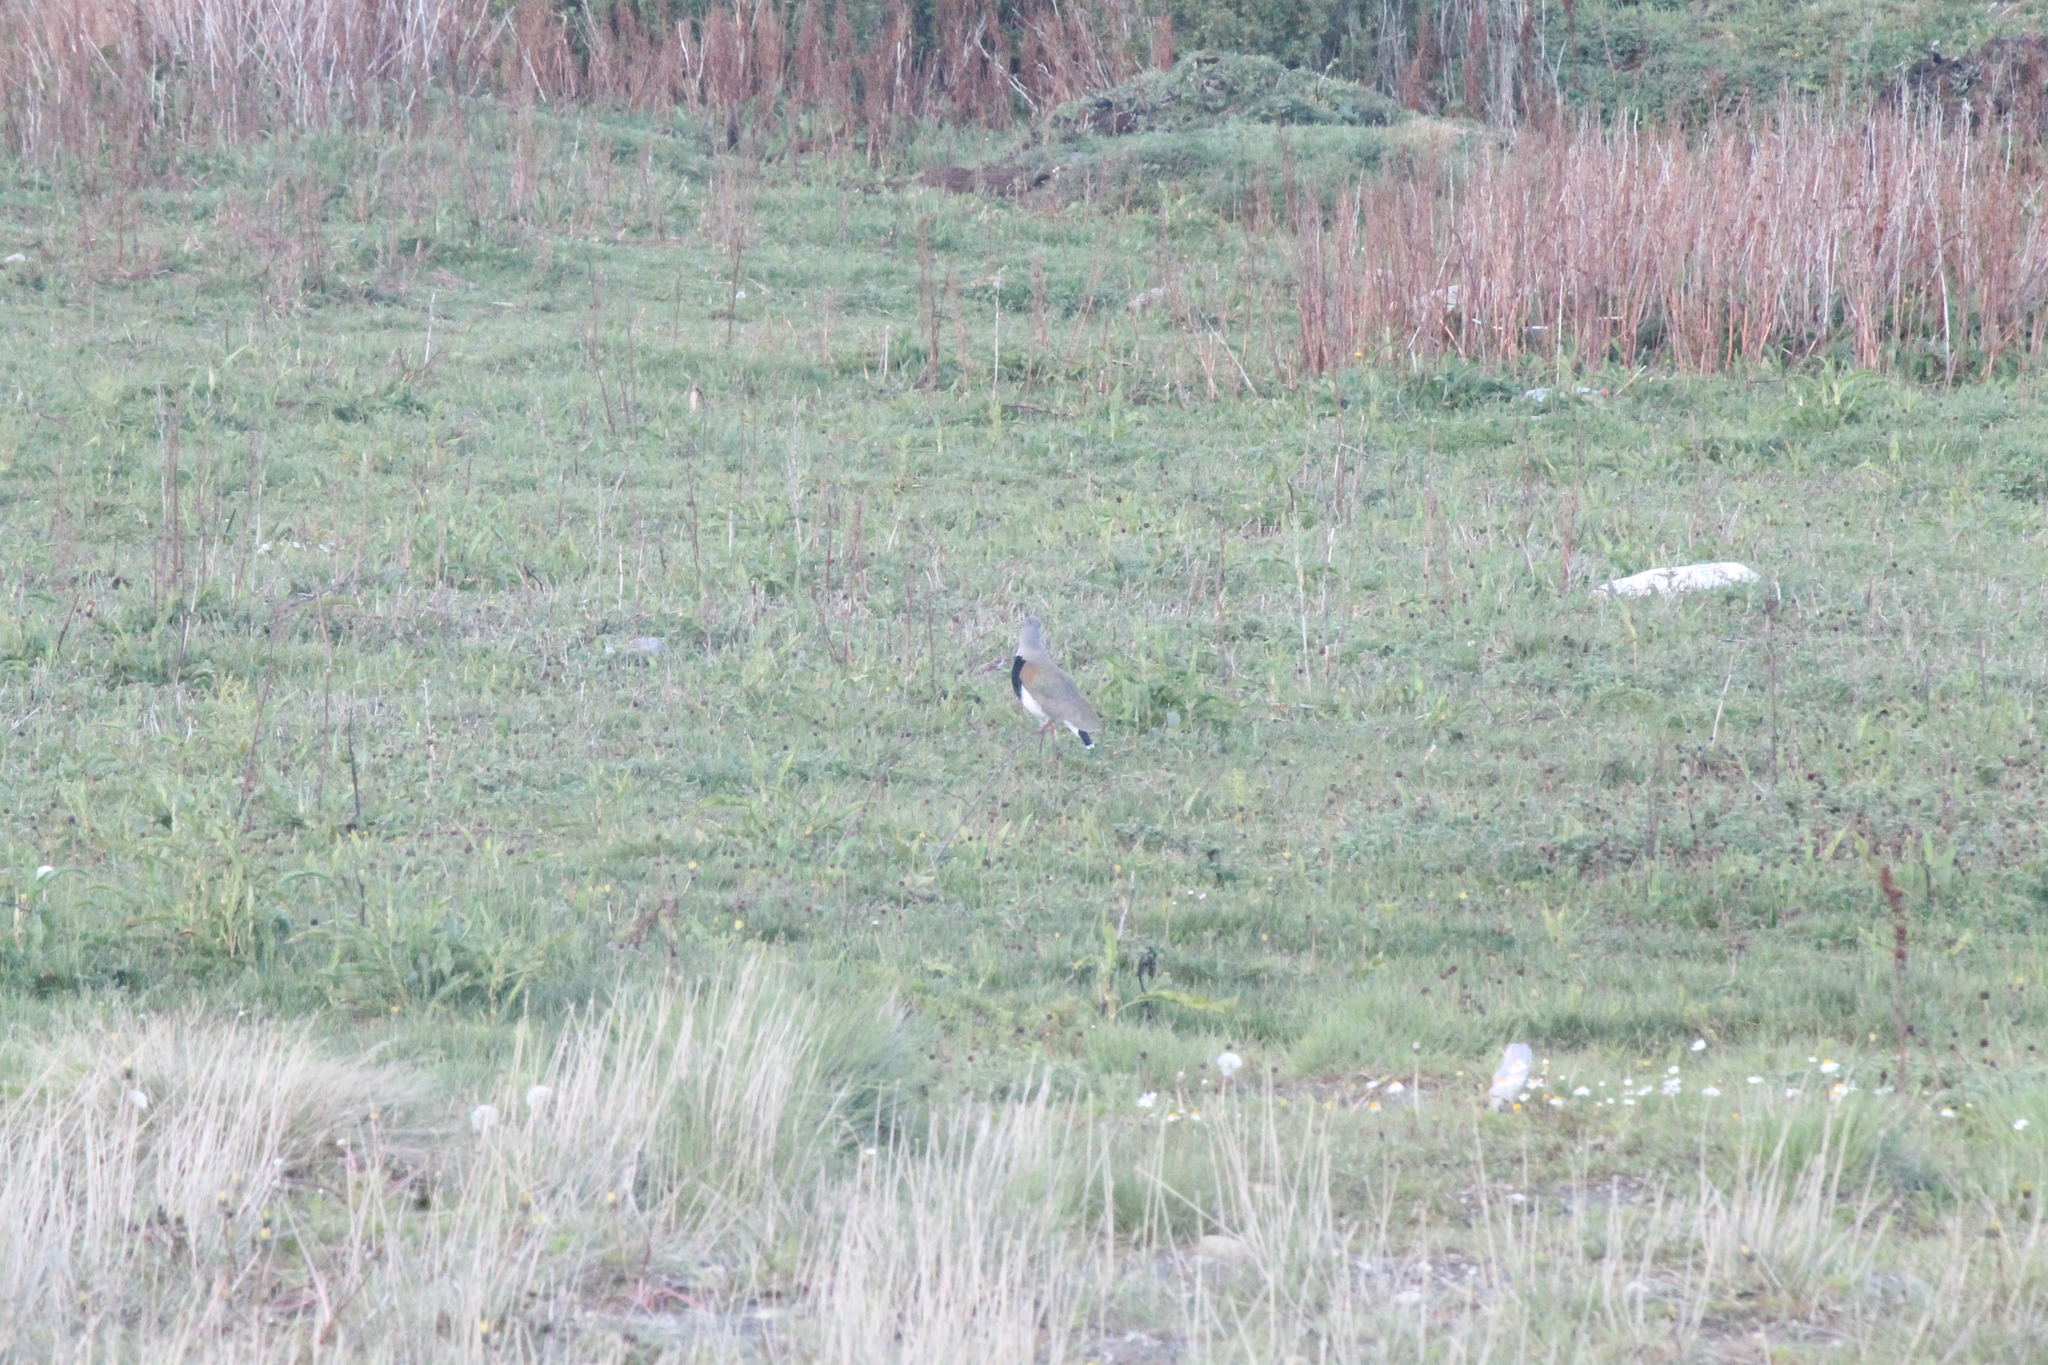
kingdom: Animalia
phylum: Chordata
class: Aves
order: Charadriiformes
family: Charadriidae
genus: Vanellus
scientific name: Vanellus chilensis
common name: Southern lapwing
